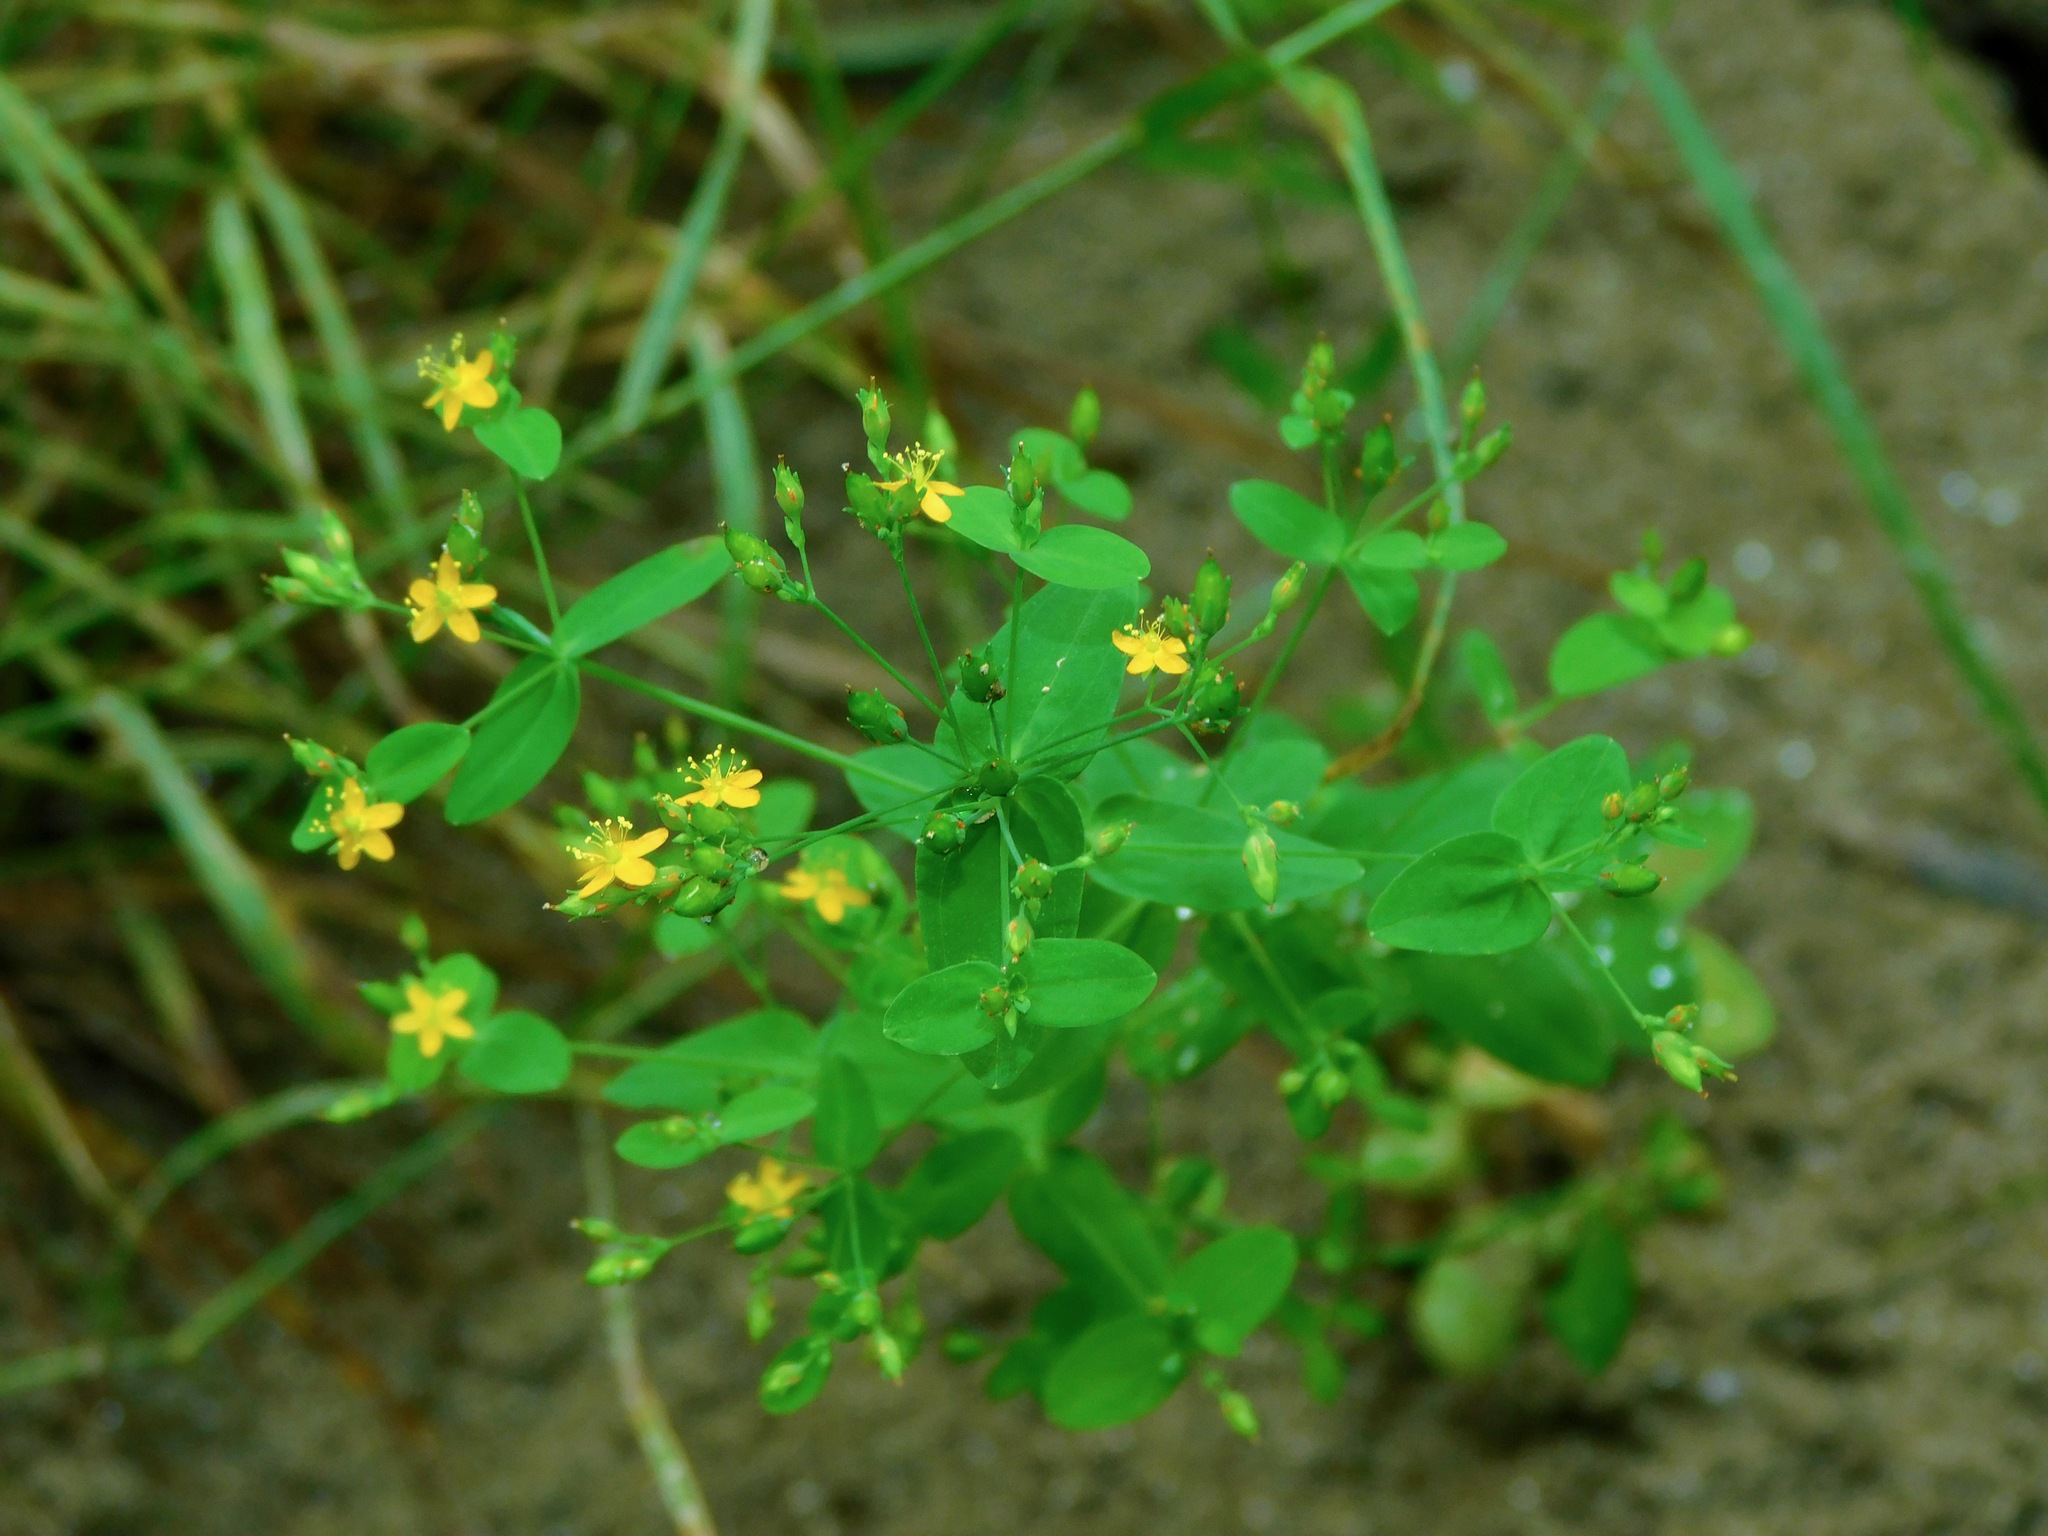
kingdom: Plantae
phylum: Tracheophyta
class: Magnoliopsida
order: Malpighiales
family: Hypericaceae
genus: Hypericum
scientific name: Hypericum mutilum
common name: Dwarf st. john's-wort
